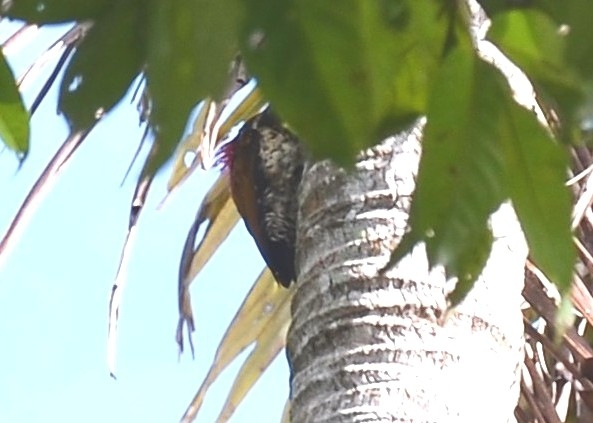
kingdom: Animalia
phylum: Chordata
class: Aves
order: Piciformes
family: Picidae
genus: Dinopium
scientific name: Dinopium benghalense
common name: Black-rumped flameback
